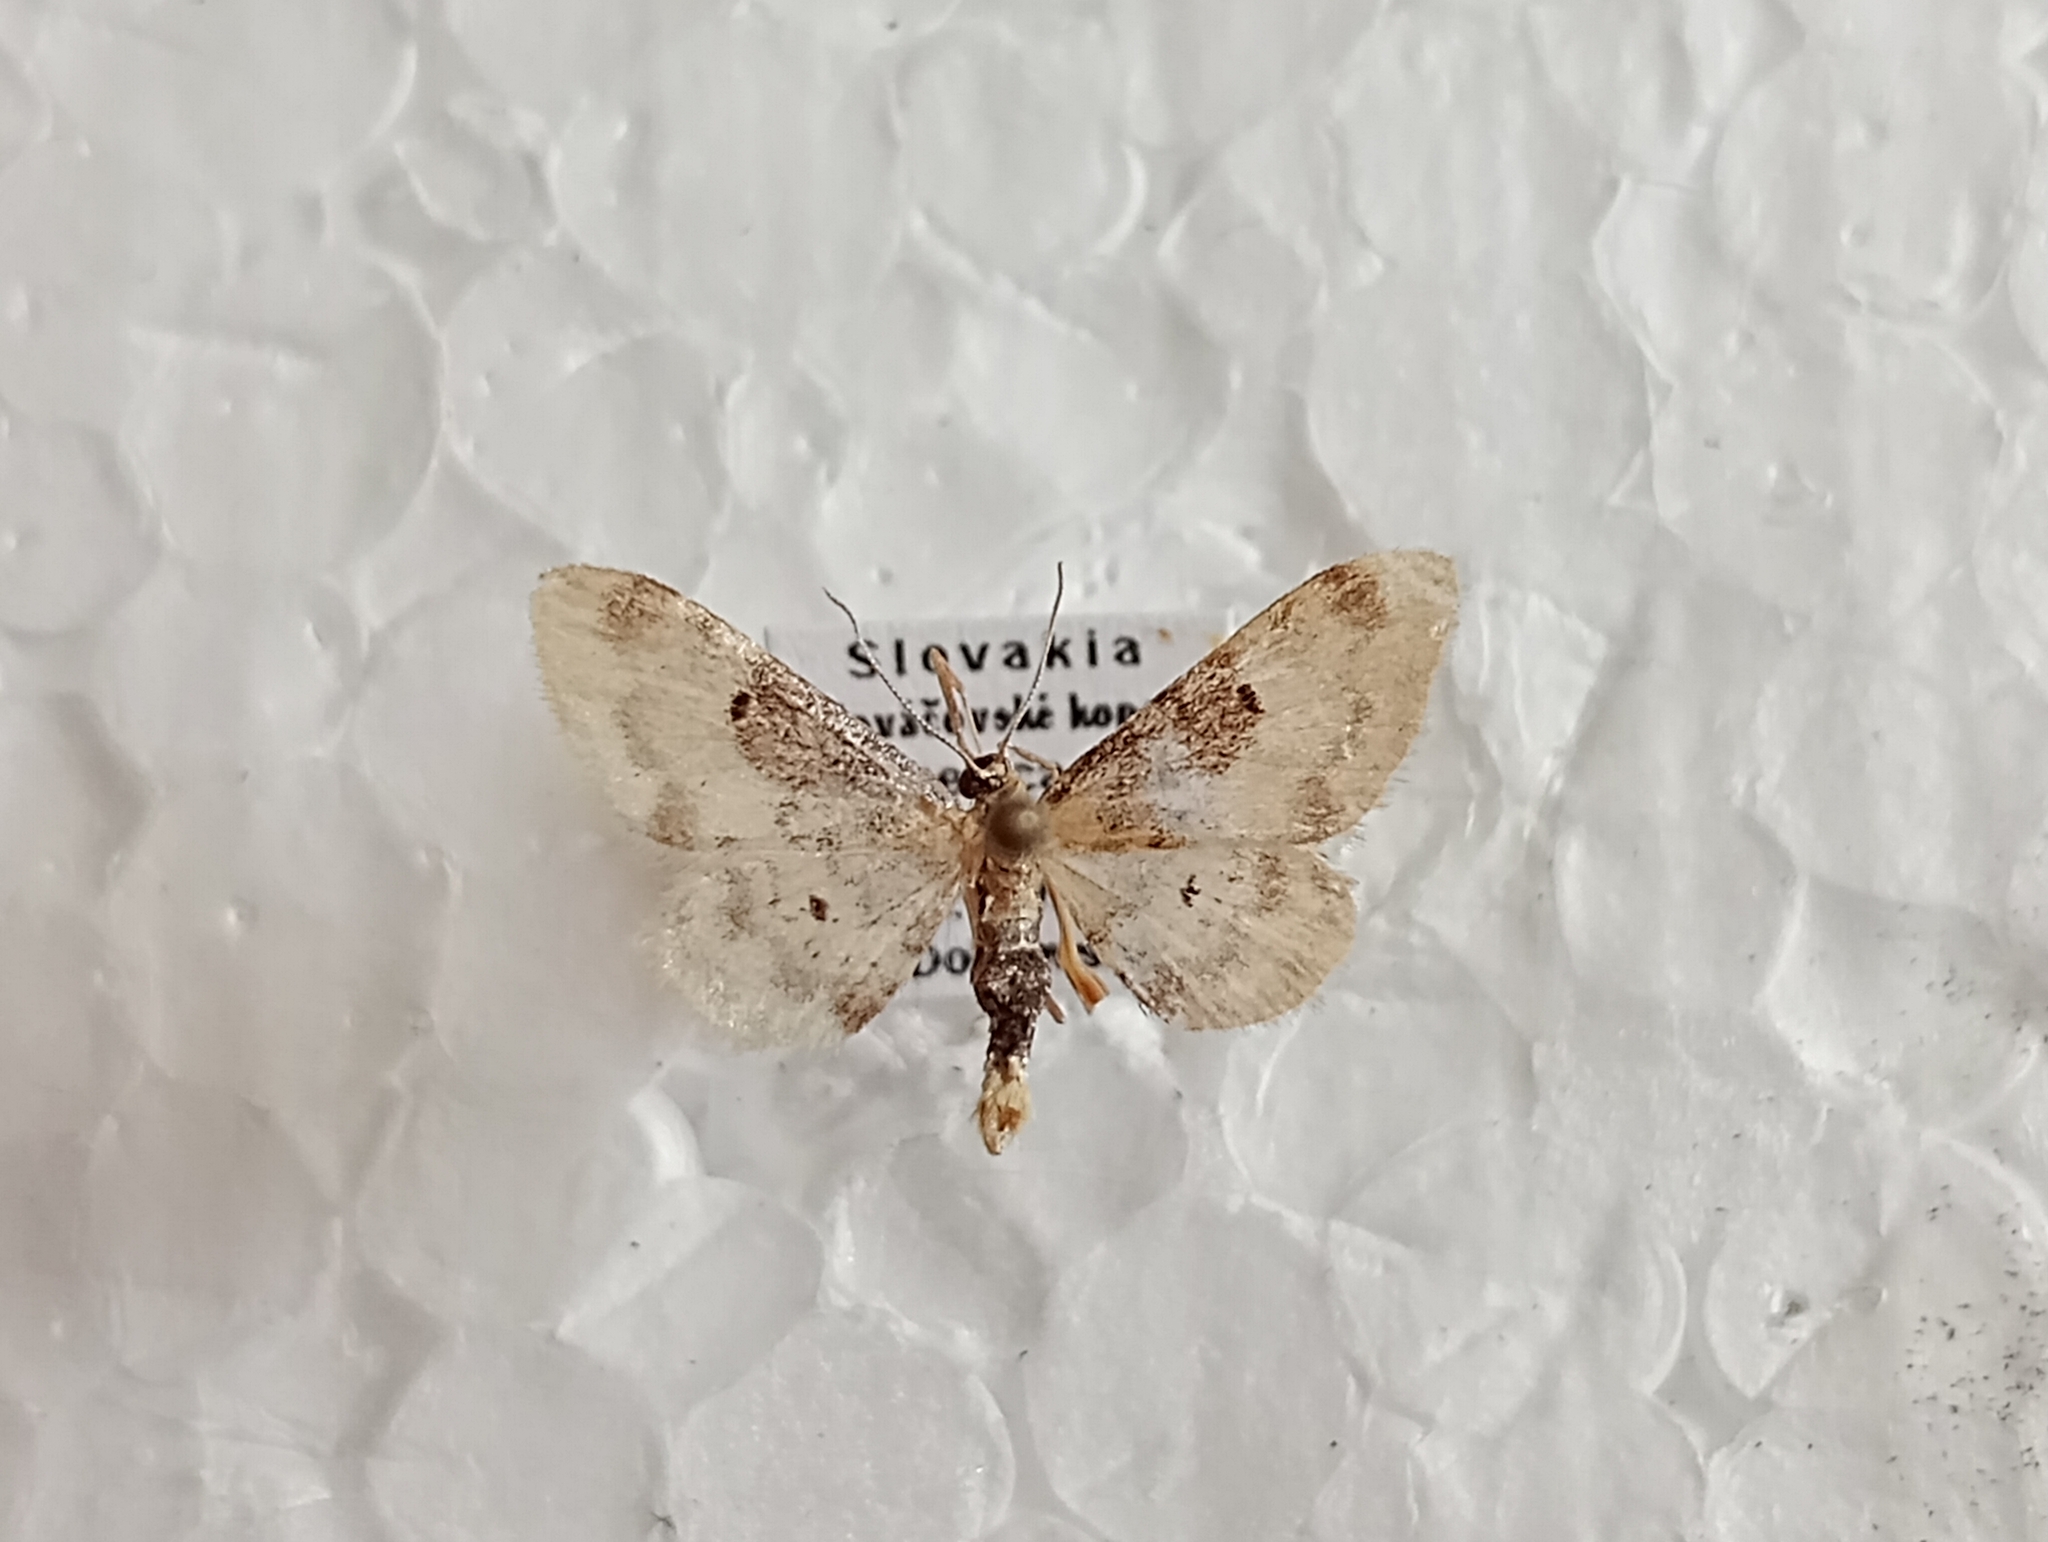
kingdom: Animalia
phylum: Arthropoda
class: Insecta
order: Lepidoptera
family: Geometridae
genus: Idaea
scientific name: Idaea filicata
